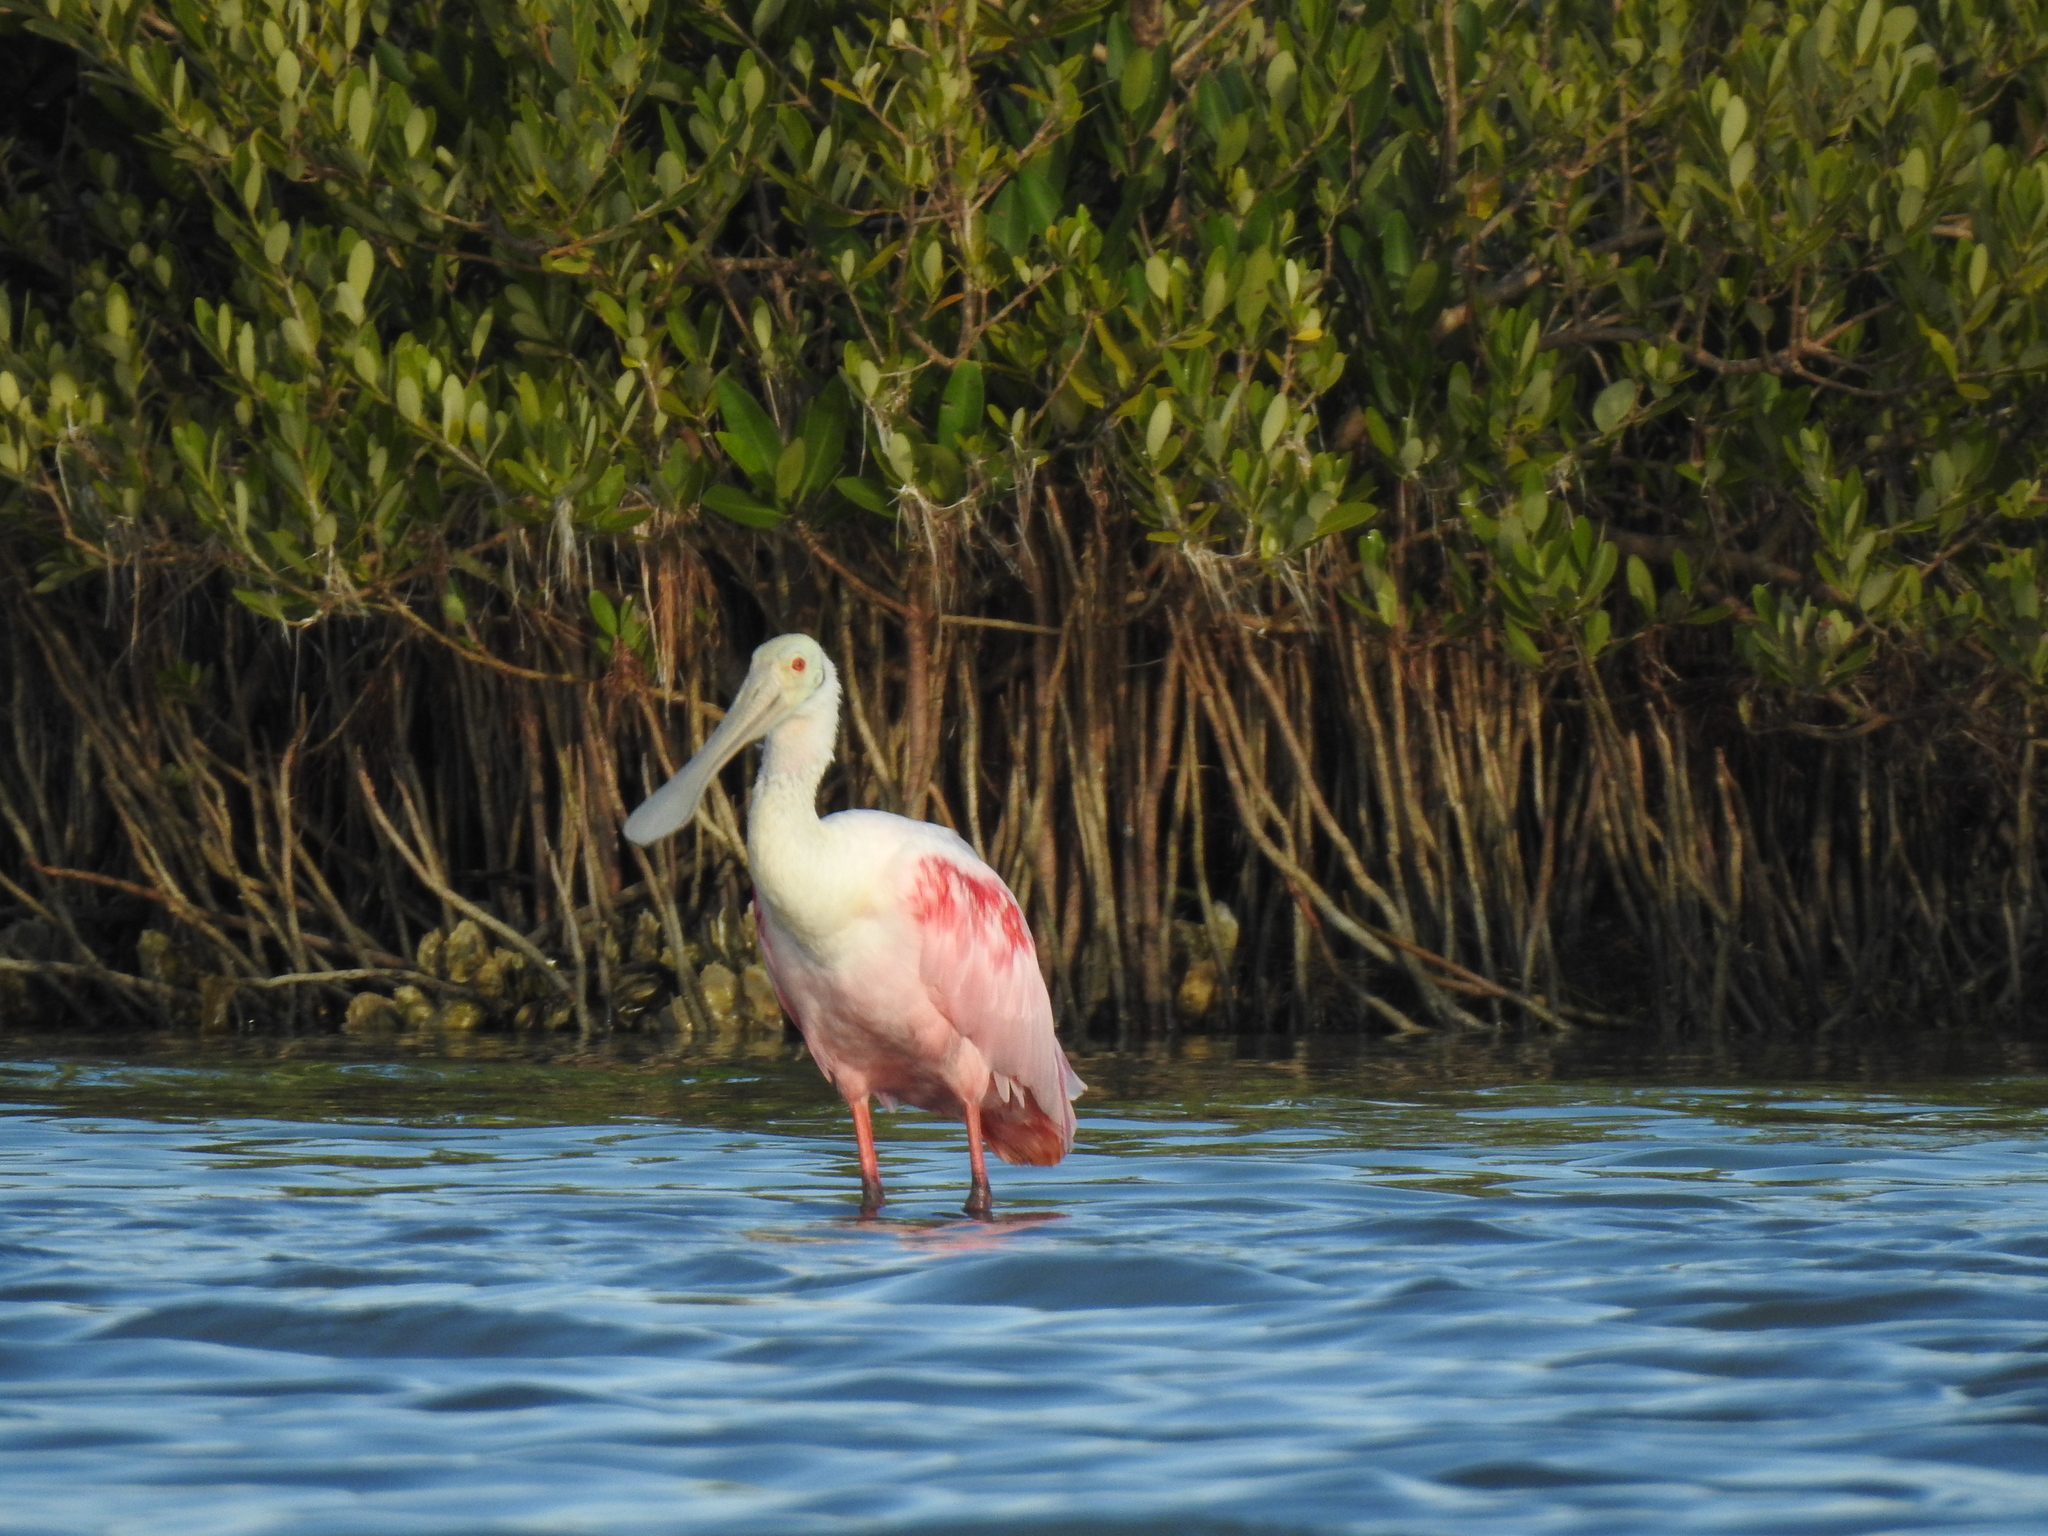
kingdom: Animalia
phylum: Chordata
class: Aves
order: Pelecaniformes
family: Threskiornithidae
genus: Platalea
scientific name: Platalea ajaja
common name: Roseate spoonbill
